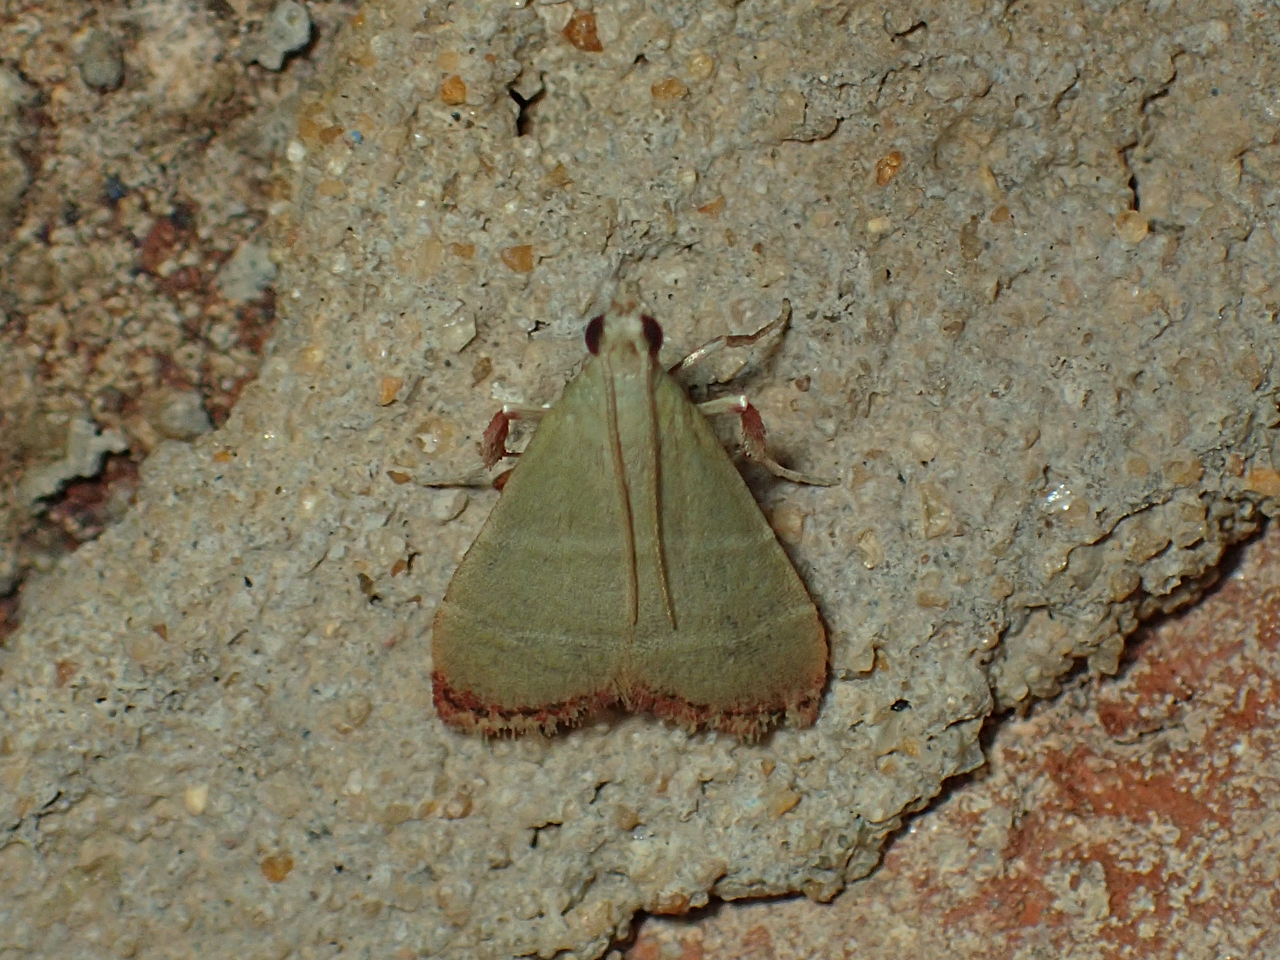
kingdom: Animalia
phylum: Arthropoda
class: Insecta
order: Lepidoptera
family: Pyralidae
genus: Arta
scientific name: Arta olivalis
